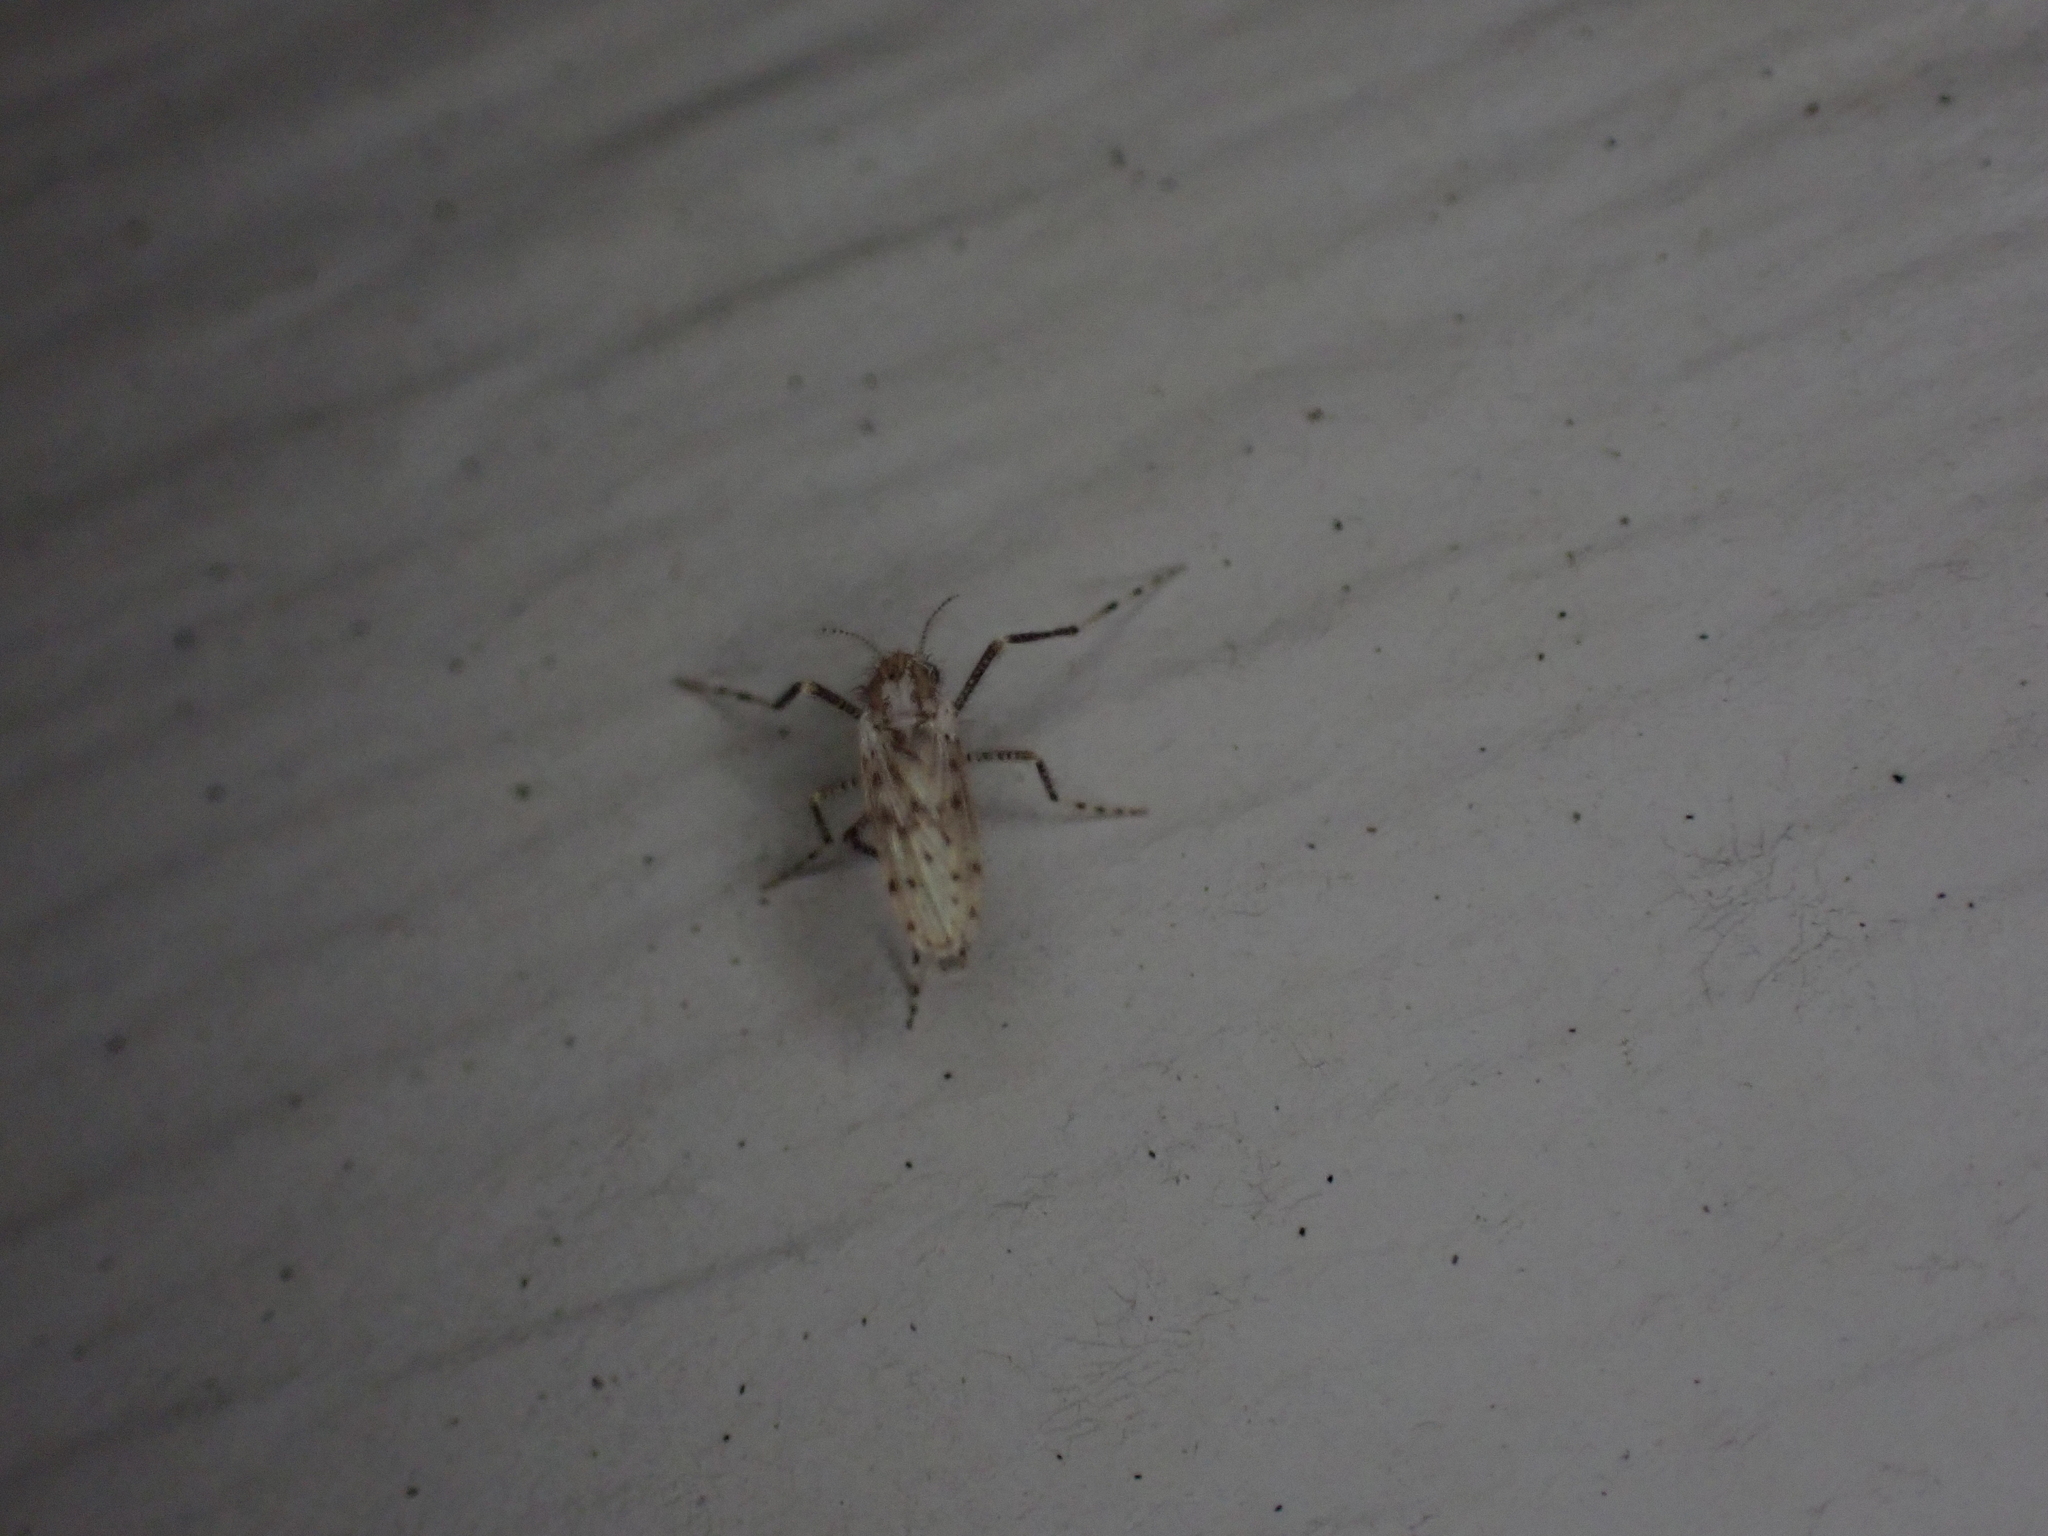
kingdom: Animalia
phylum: Arthropoda
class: Insecta
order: Diptera
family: Chaoboridae
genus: Chaoborus
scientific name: Chaoborus punctipennis
